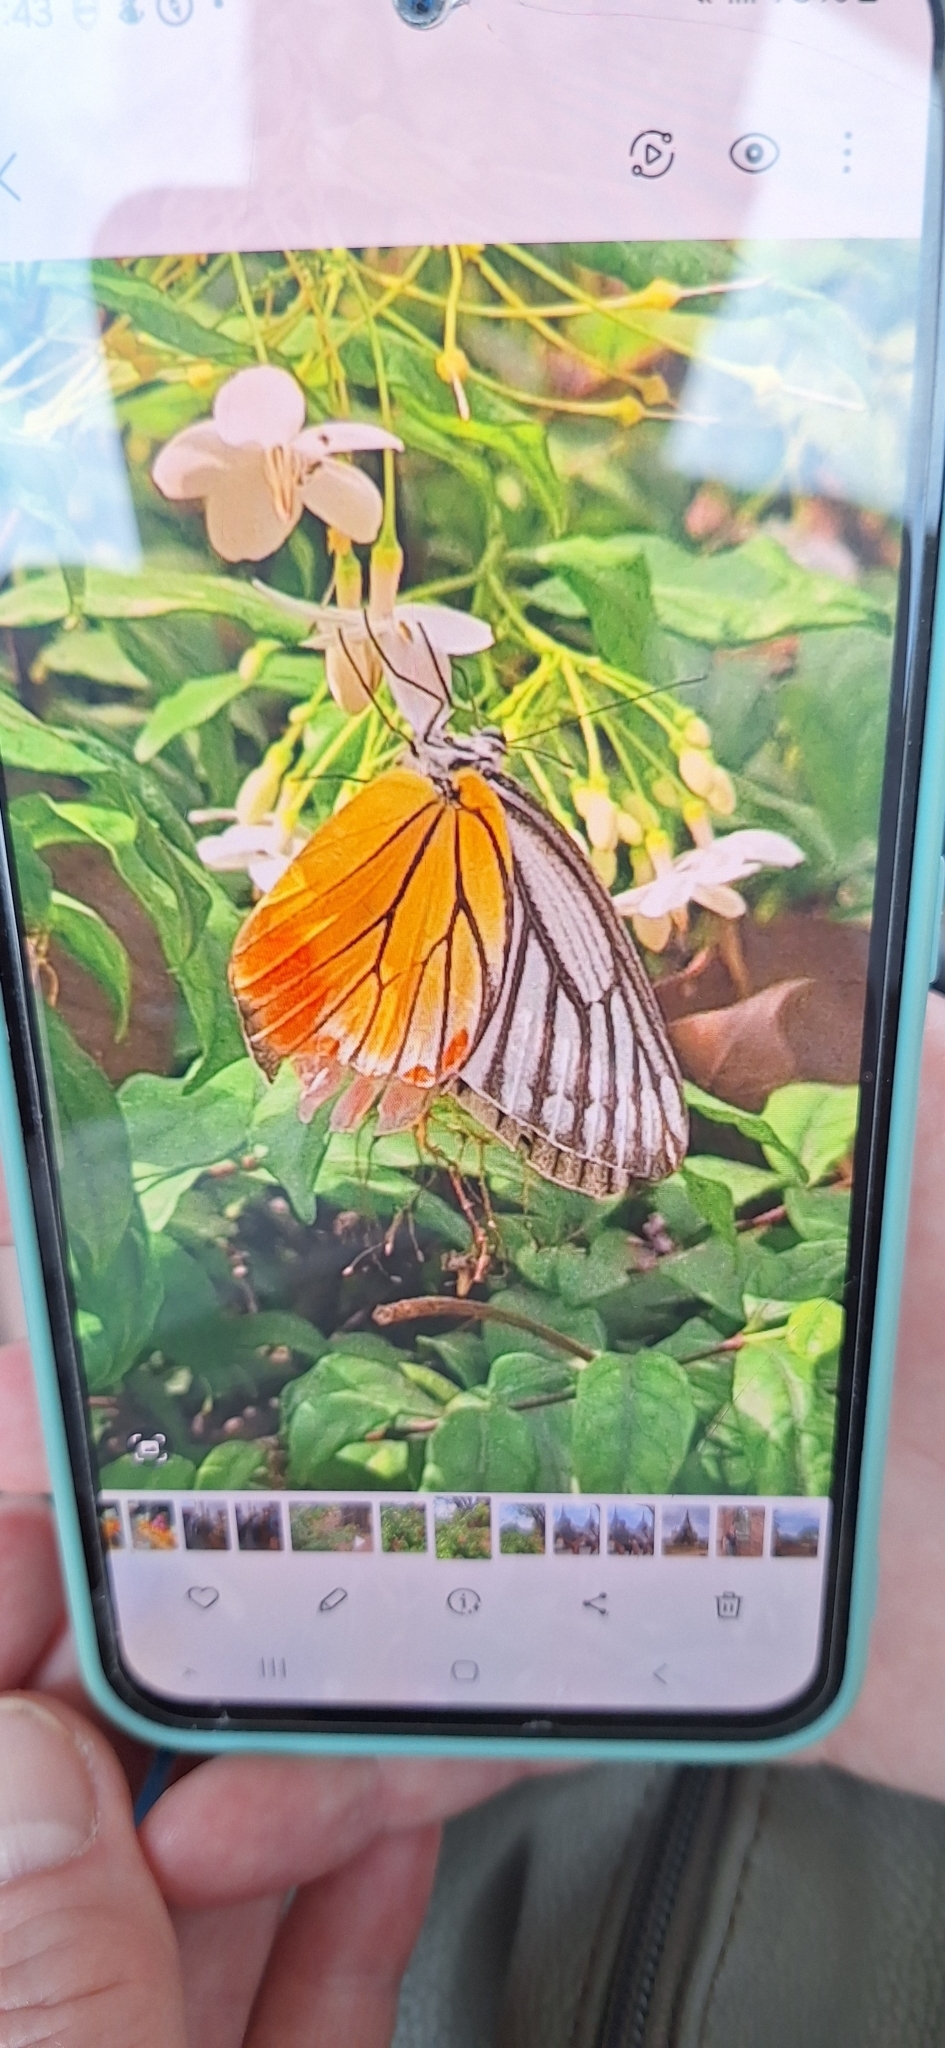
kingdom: Animalia
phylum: Arthropoda
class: Insecta
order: Lepidoptera
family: Pieridae
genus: Delias
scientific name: Delias hyparete
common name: Painted jezebel
